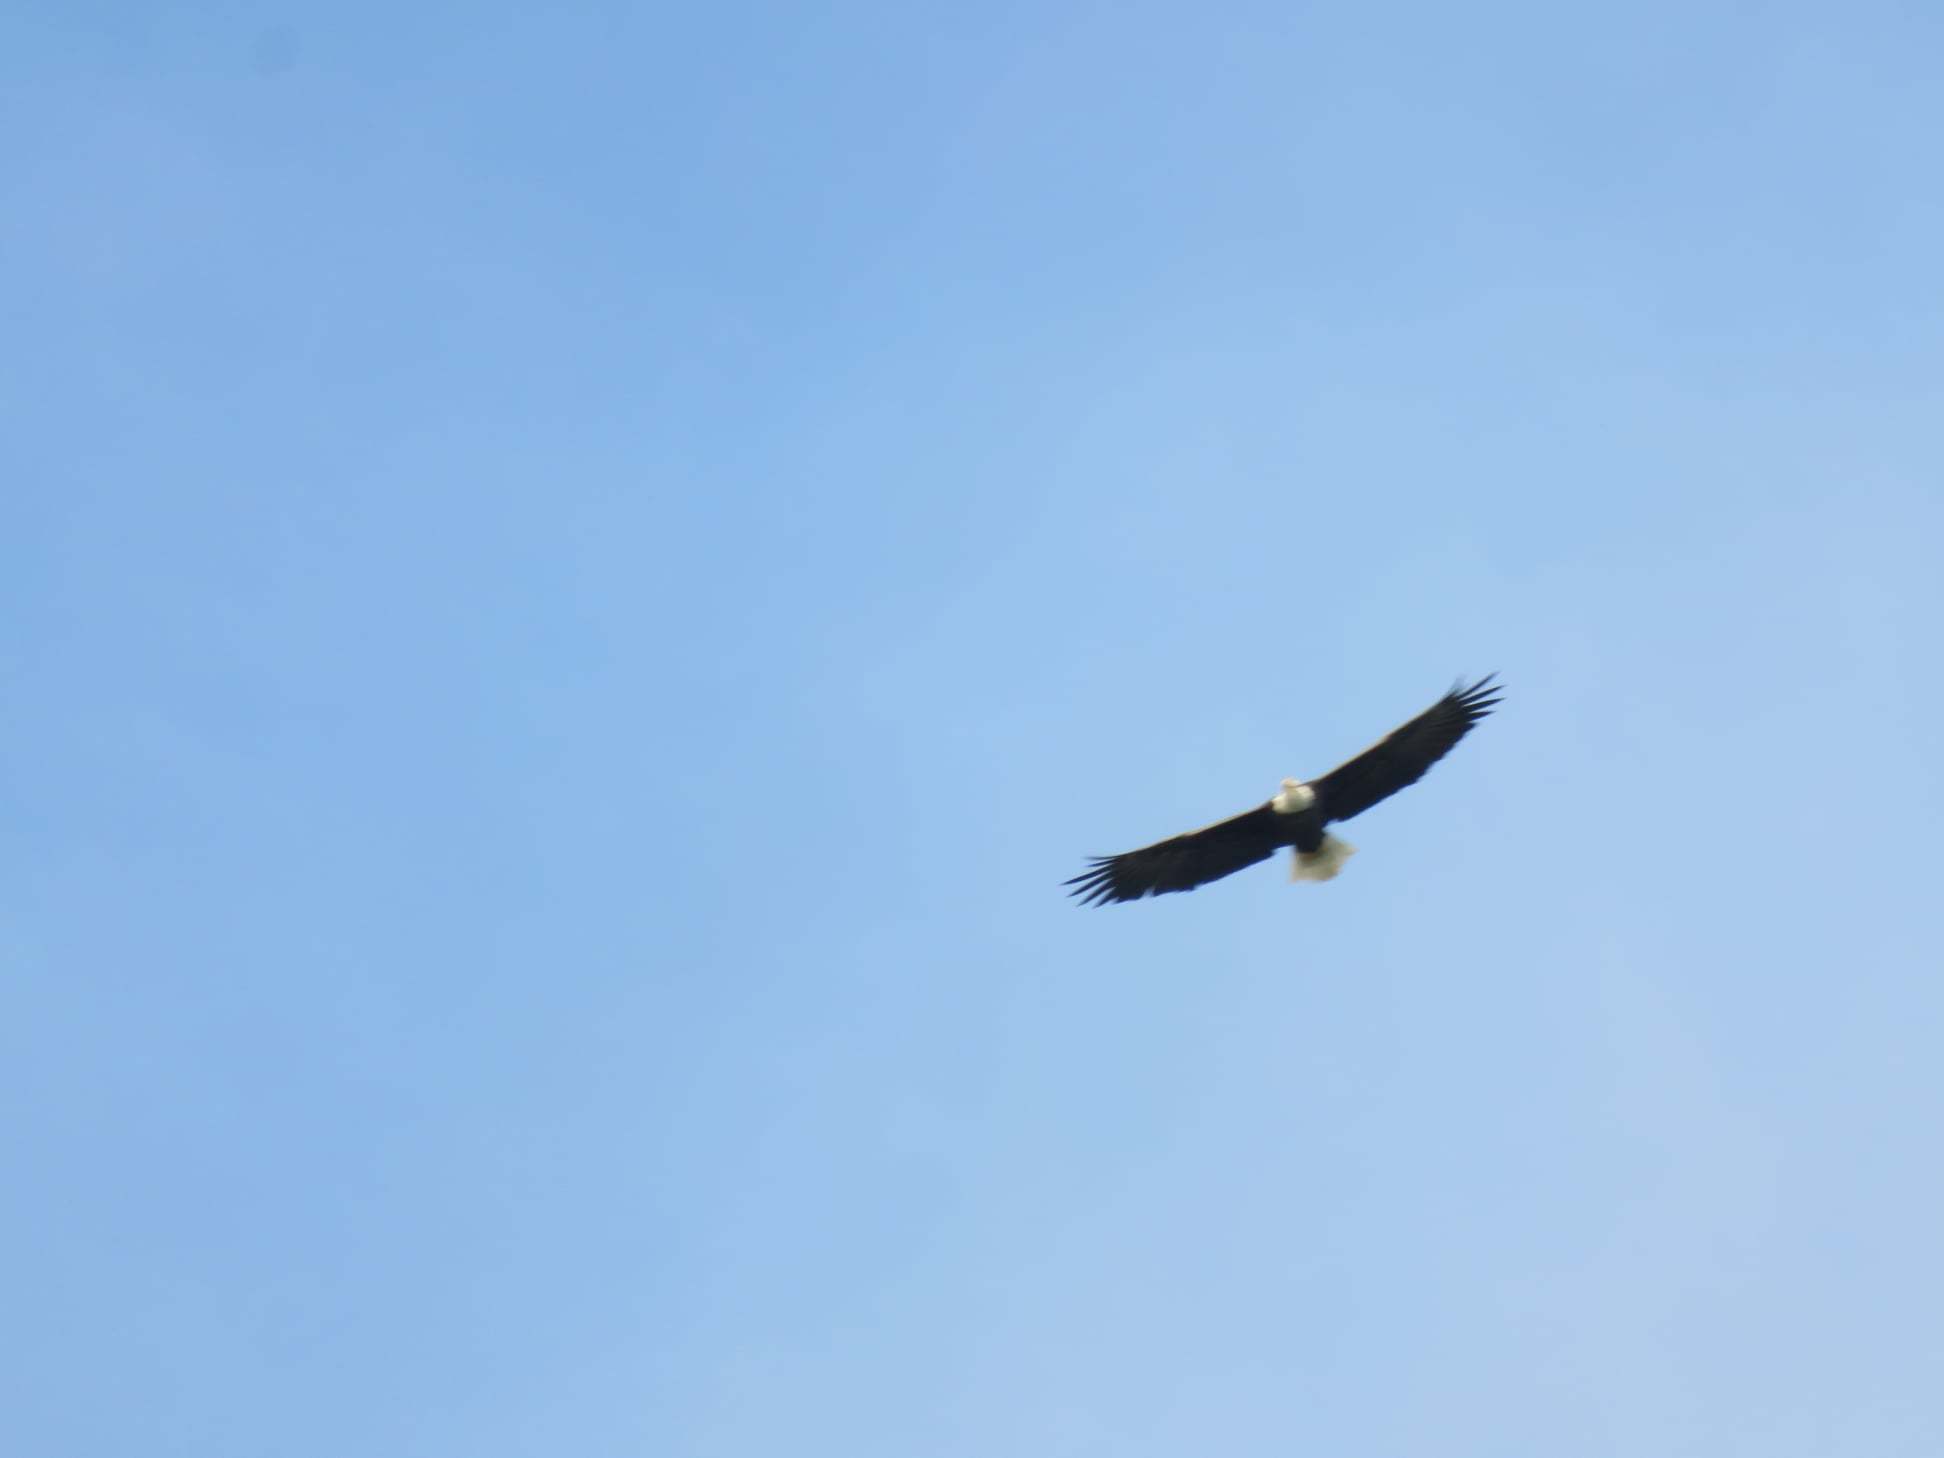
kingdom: Animalia
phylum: Chordata
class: Aves
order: Accipitriformes
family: Accipitridae
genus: Haliaeetus
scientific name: Haliaeetus leucocephalus
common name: Bald eagle
